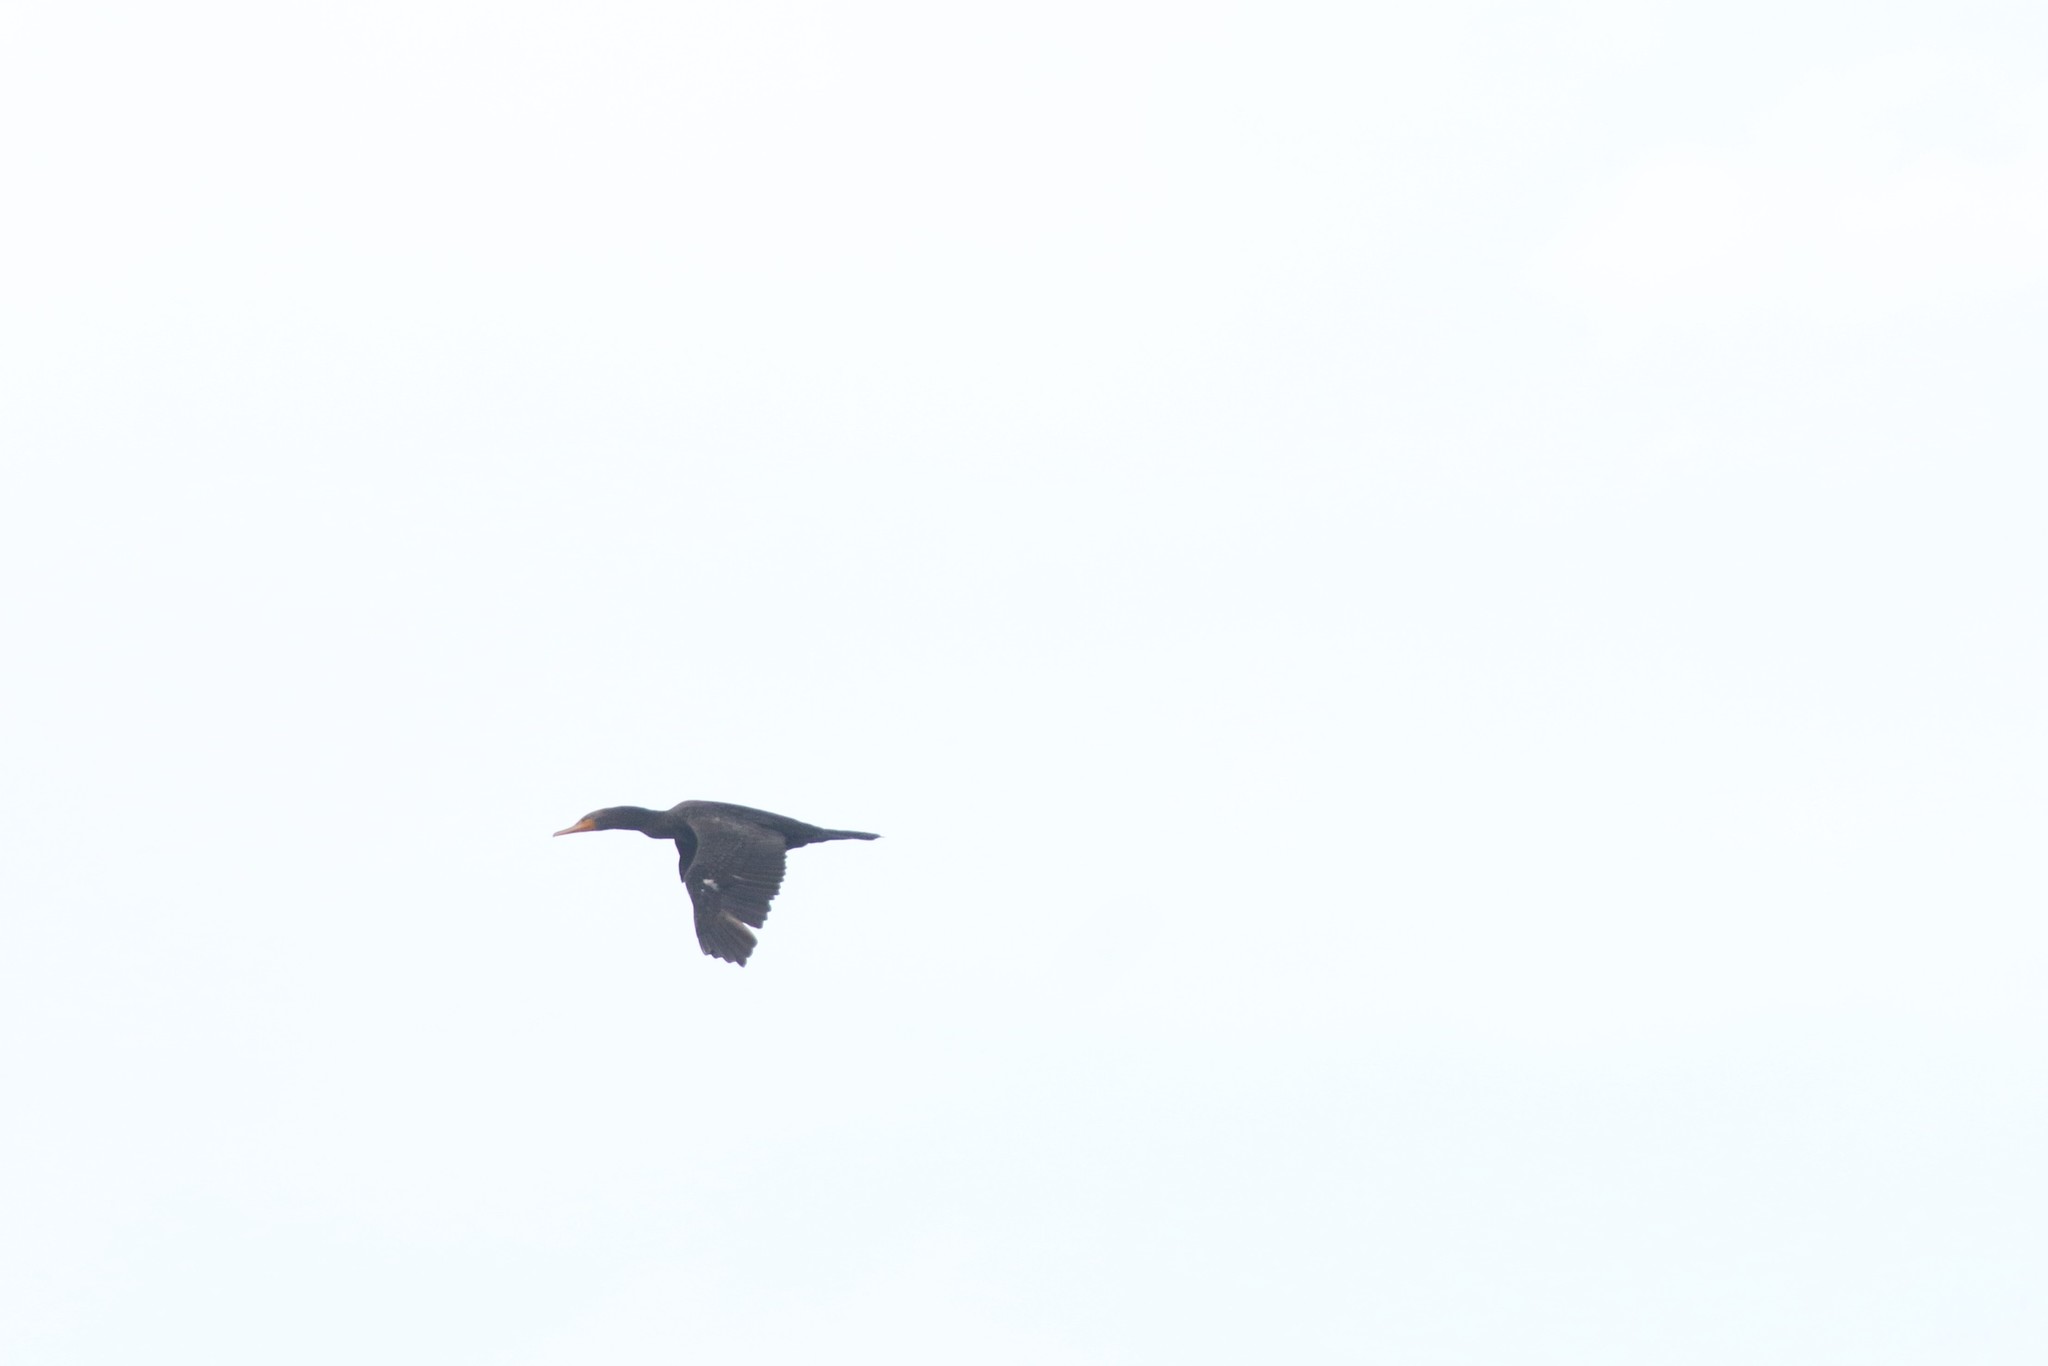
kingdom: Animalia
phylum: Chordata
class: Aves
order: Suliformes
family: Phalacrocoracidae
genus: Phalacrocorax
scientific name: Phalacrocorax auritus
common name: Double-crested cormorant
